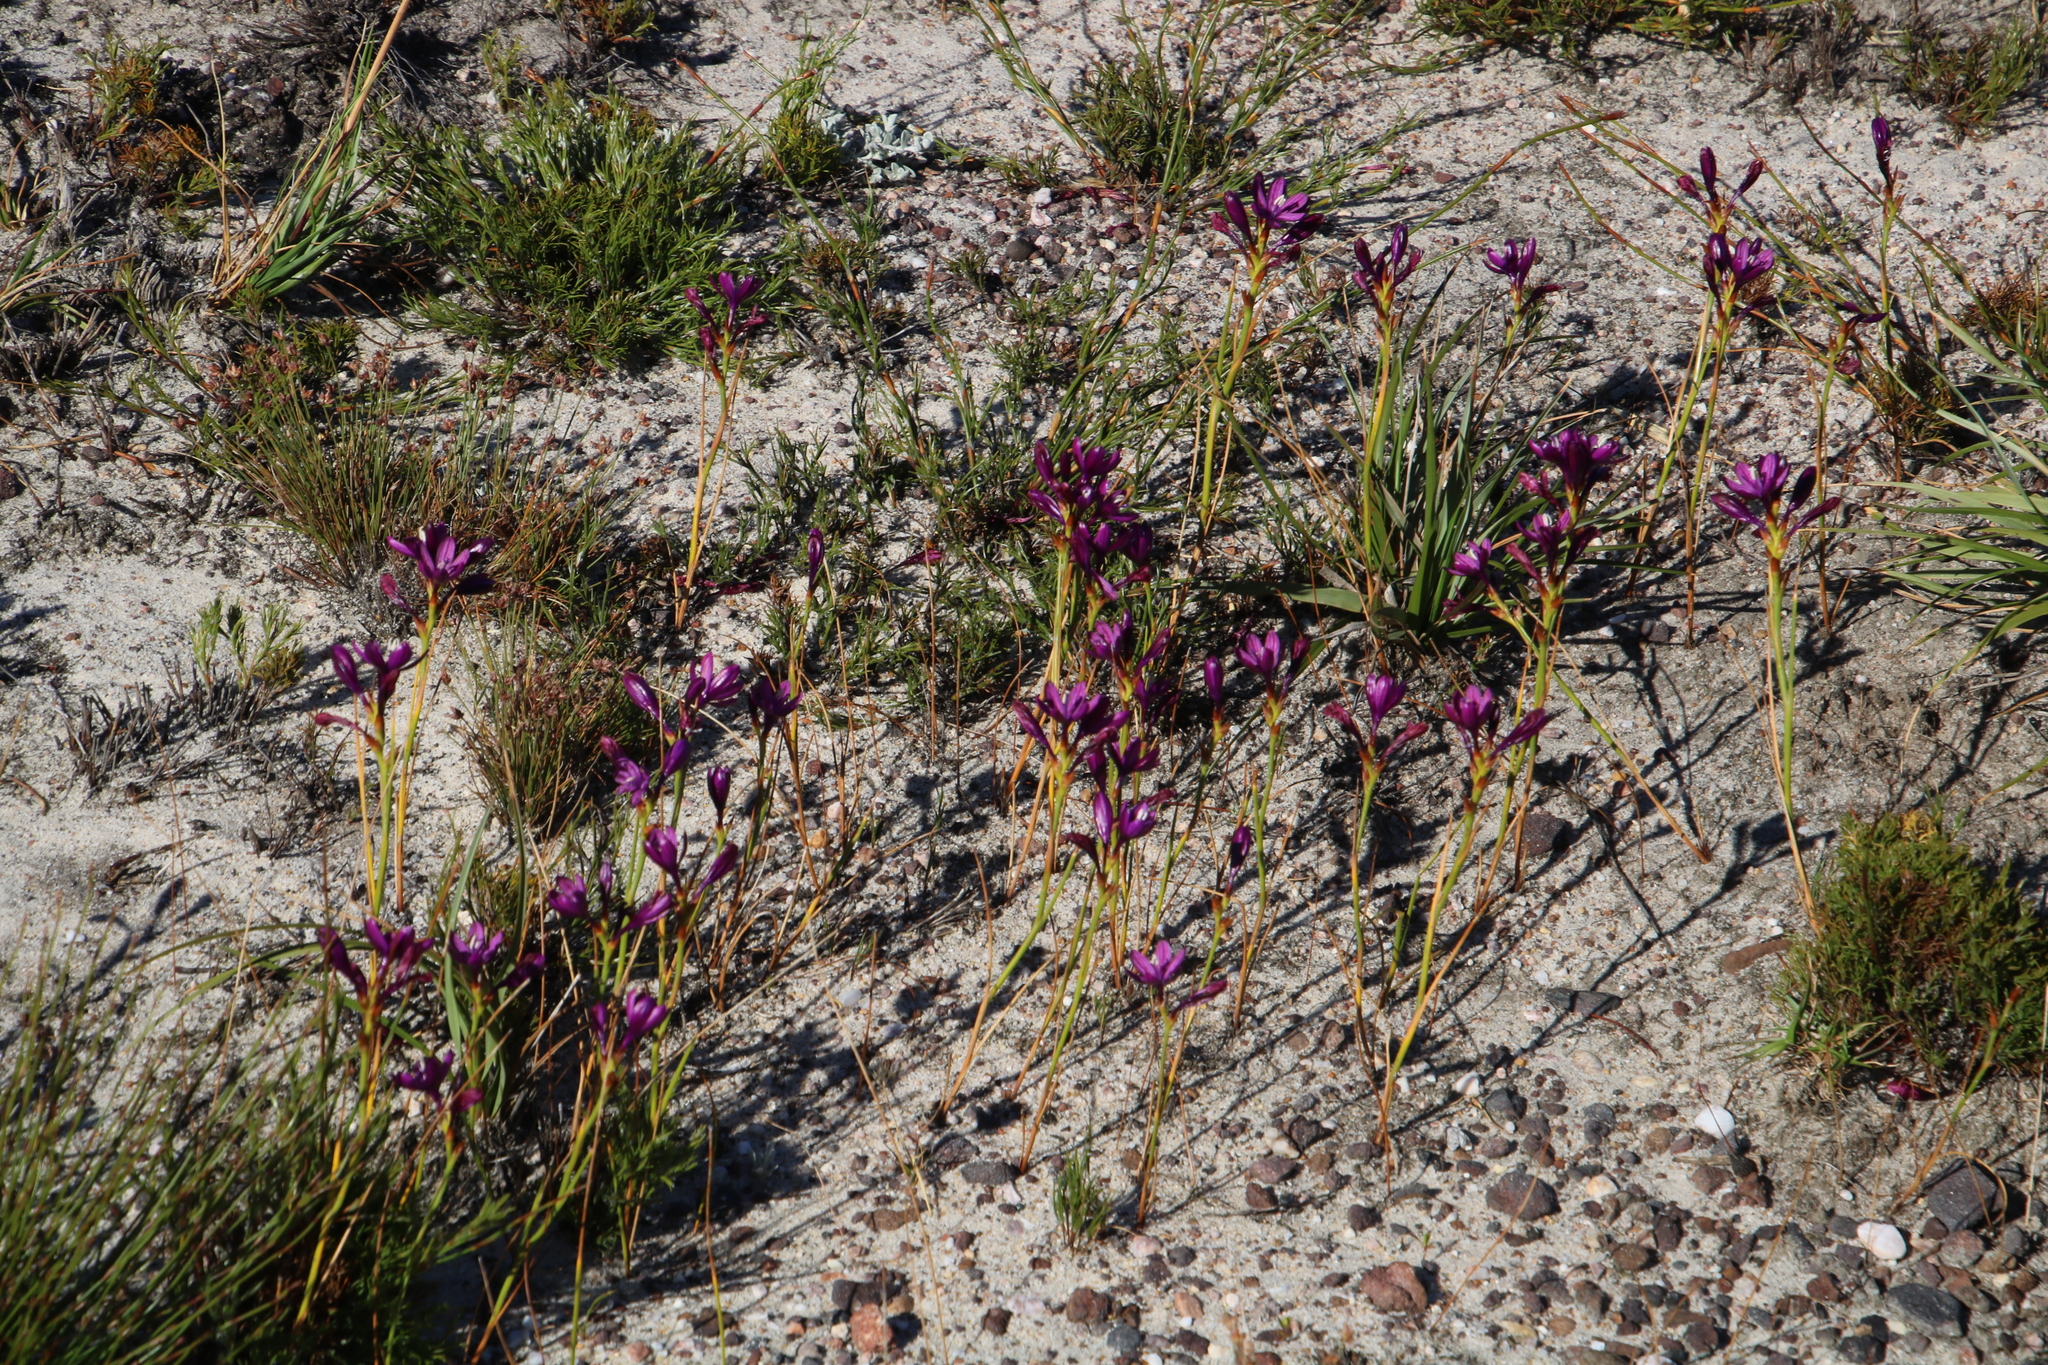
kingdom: Plantae
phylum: Tracheophyta
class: Liliopsida
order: Asparagales
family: Iridaceae
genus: Thereianthus
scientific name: Thereianthus bracteolatus
